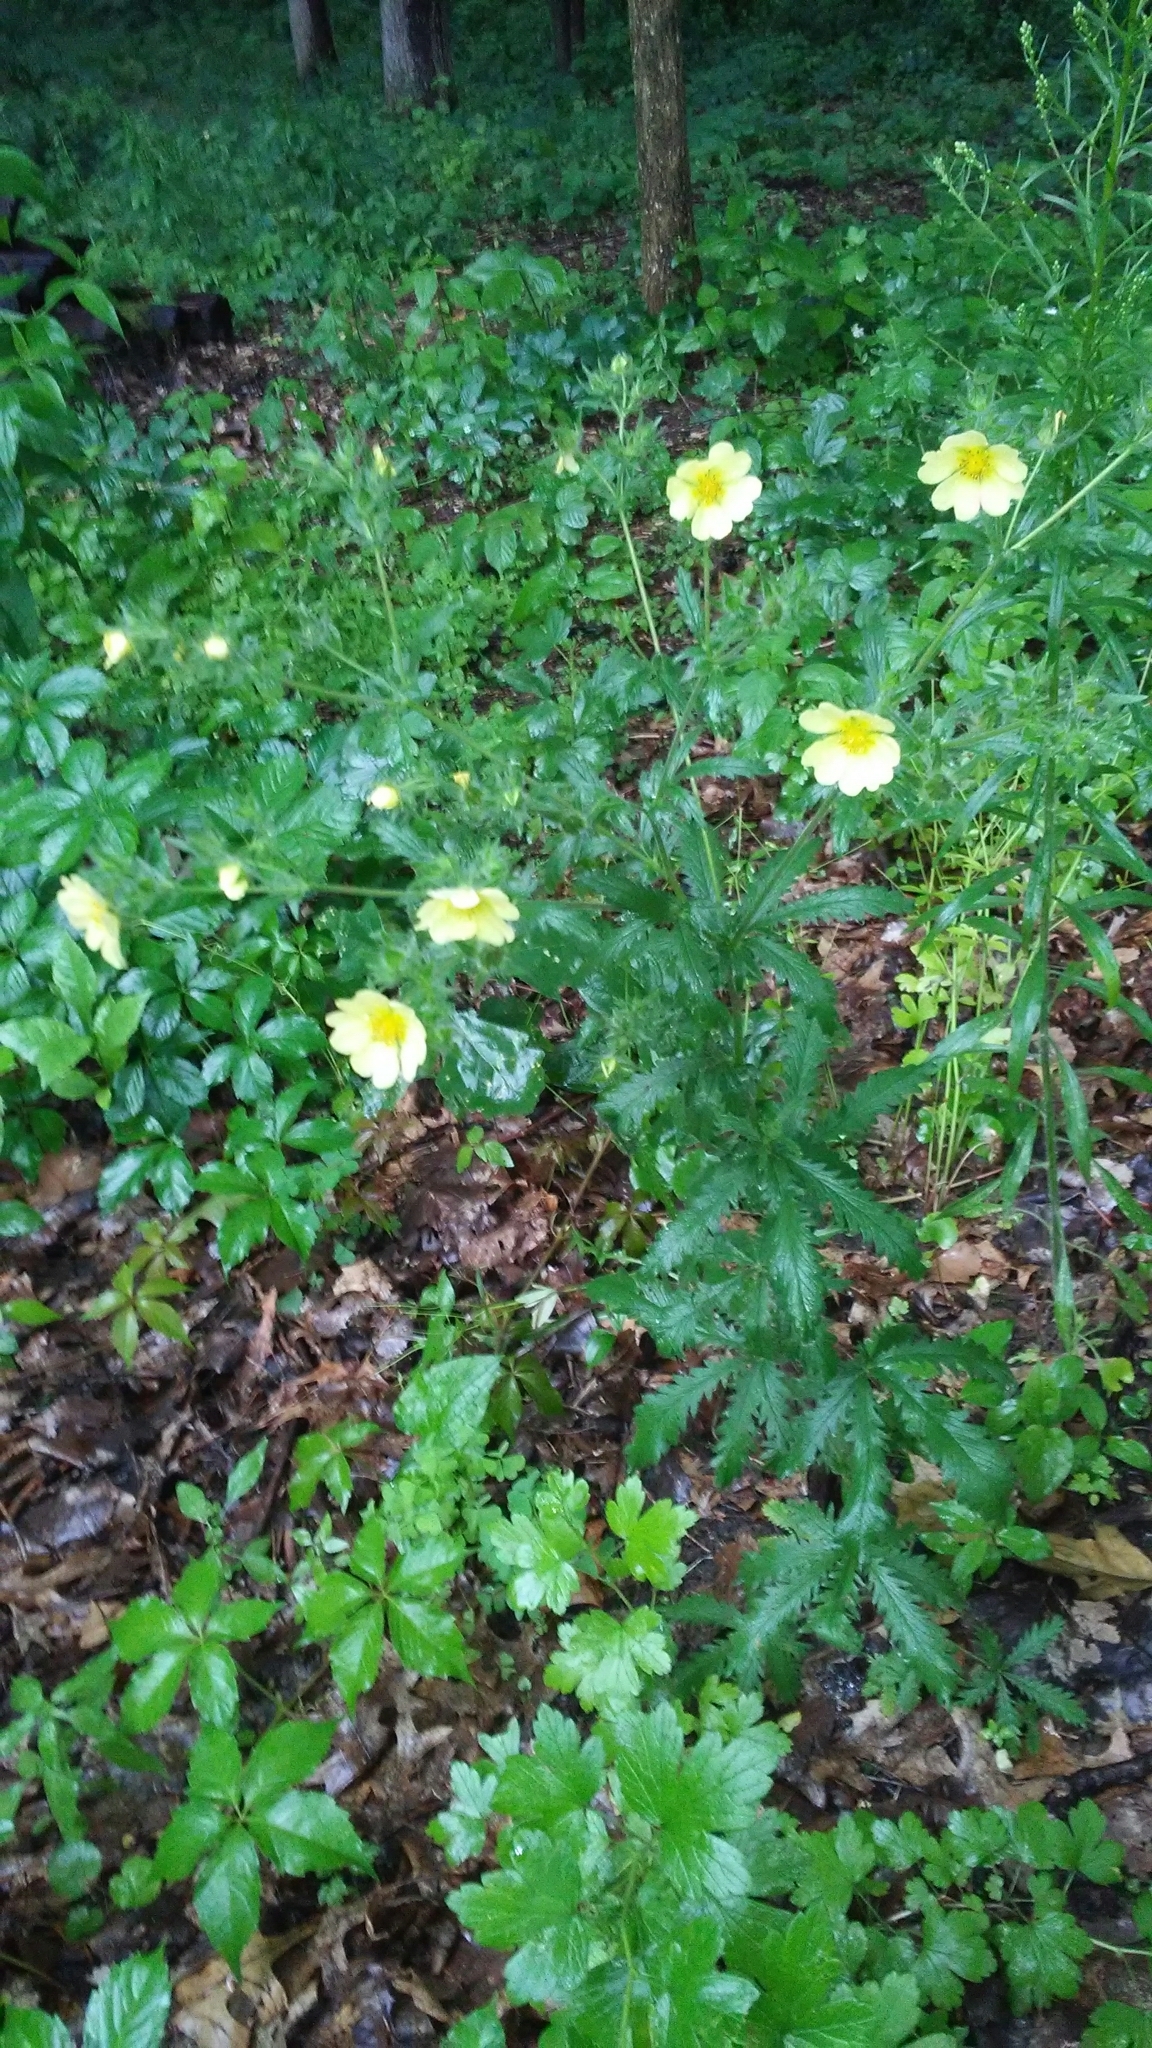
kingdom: Plantae
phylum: Tracheophyta
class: Magnoliopsida
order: Rosales
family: Rosaceae
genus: Potentilla
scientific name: Potentilla recta
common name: Sulphur cinquefoil
